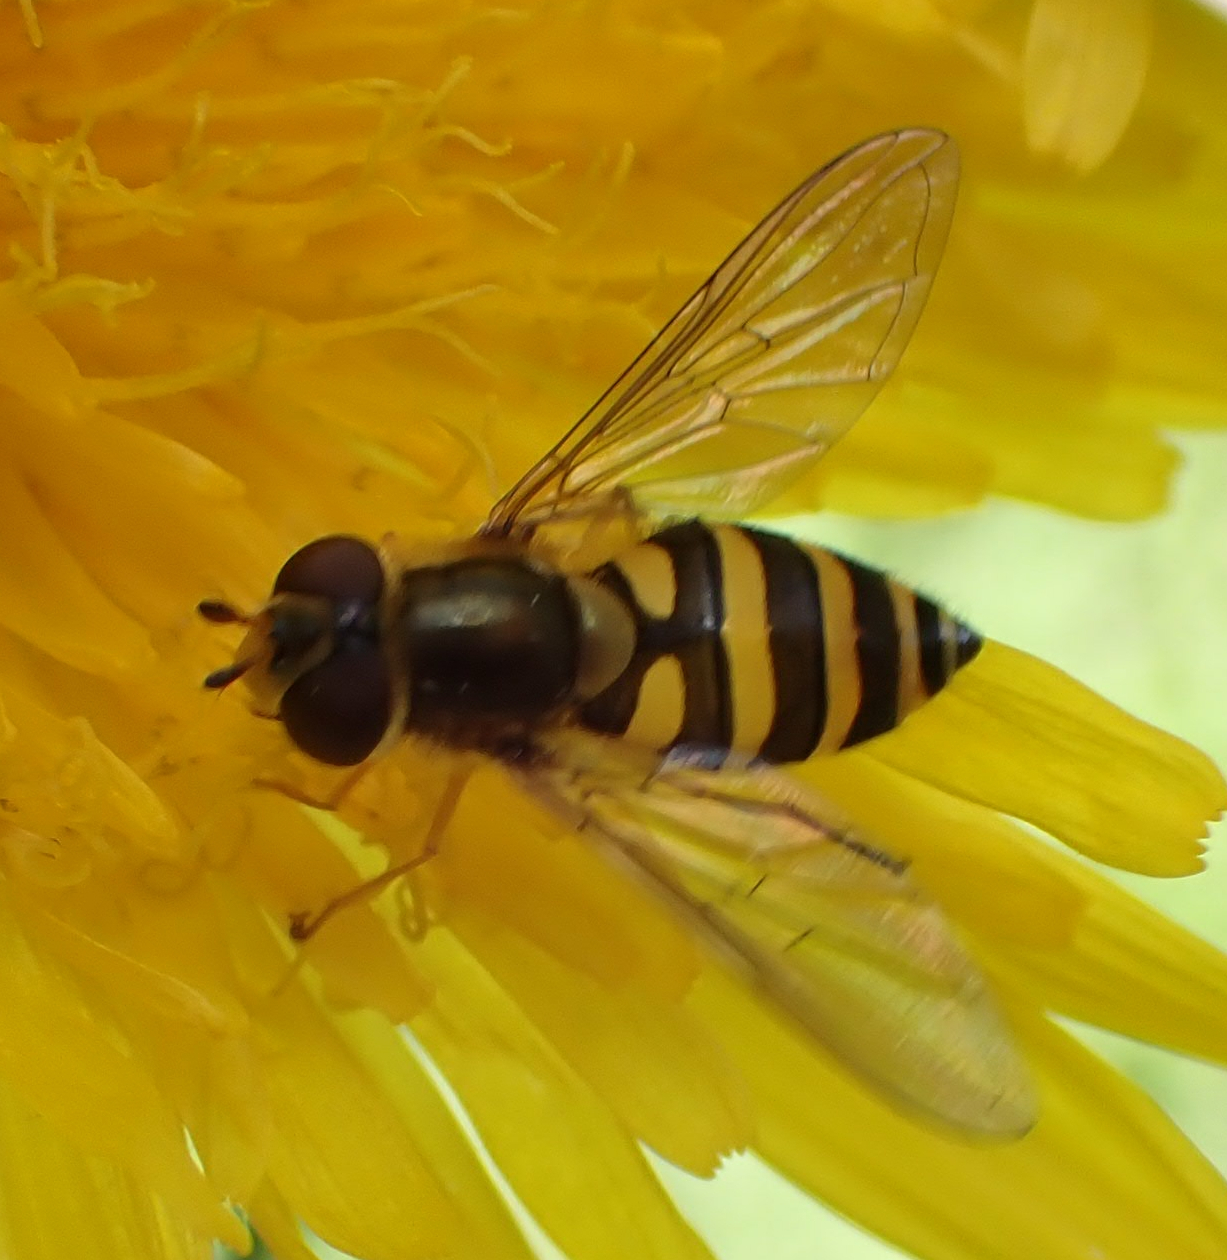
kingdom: Animalia
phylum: Arthropoda
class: Insecta
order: Diptera
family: Syrphidae
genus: Syrphus
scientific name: Syrphus
